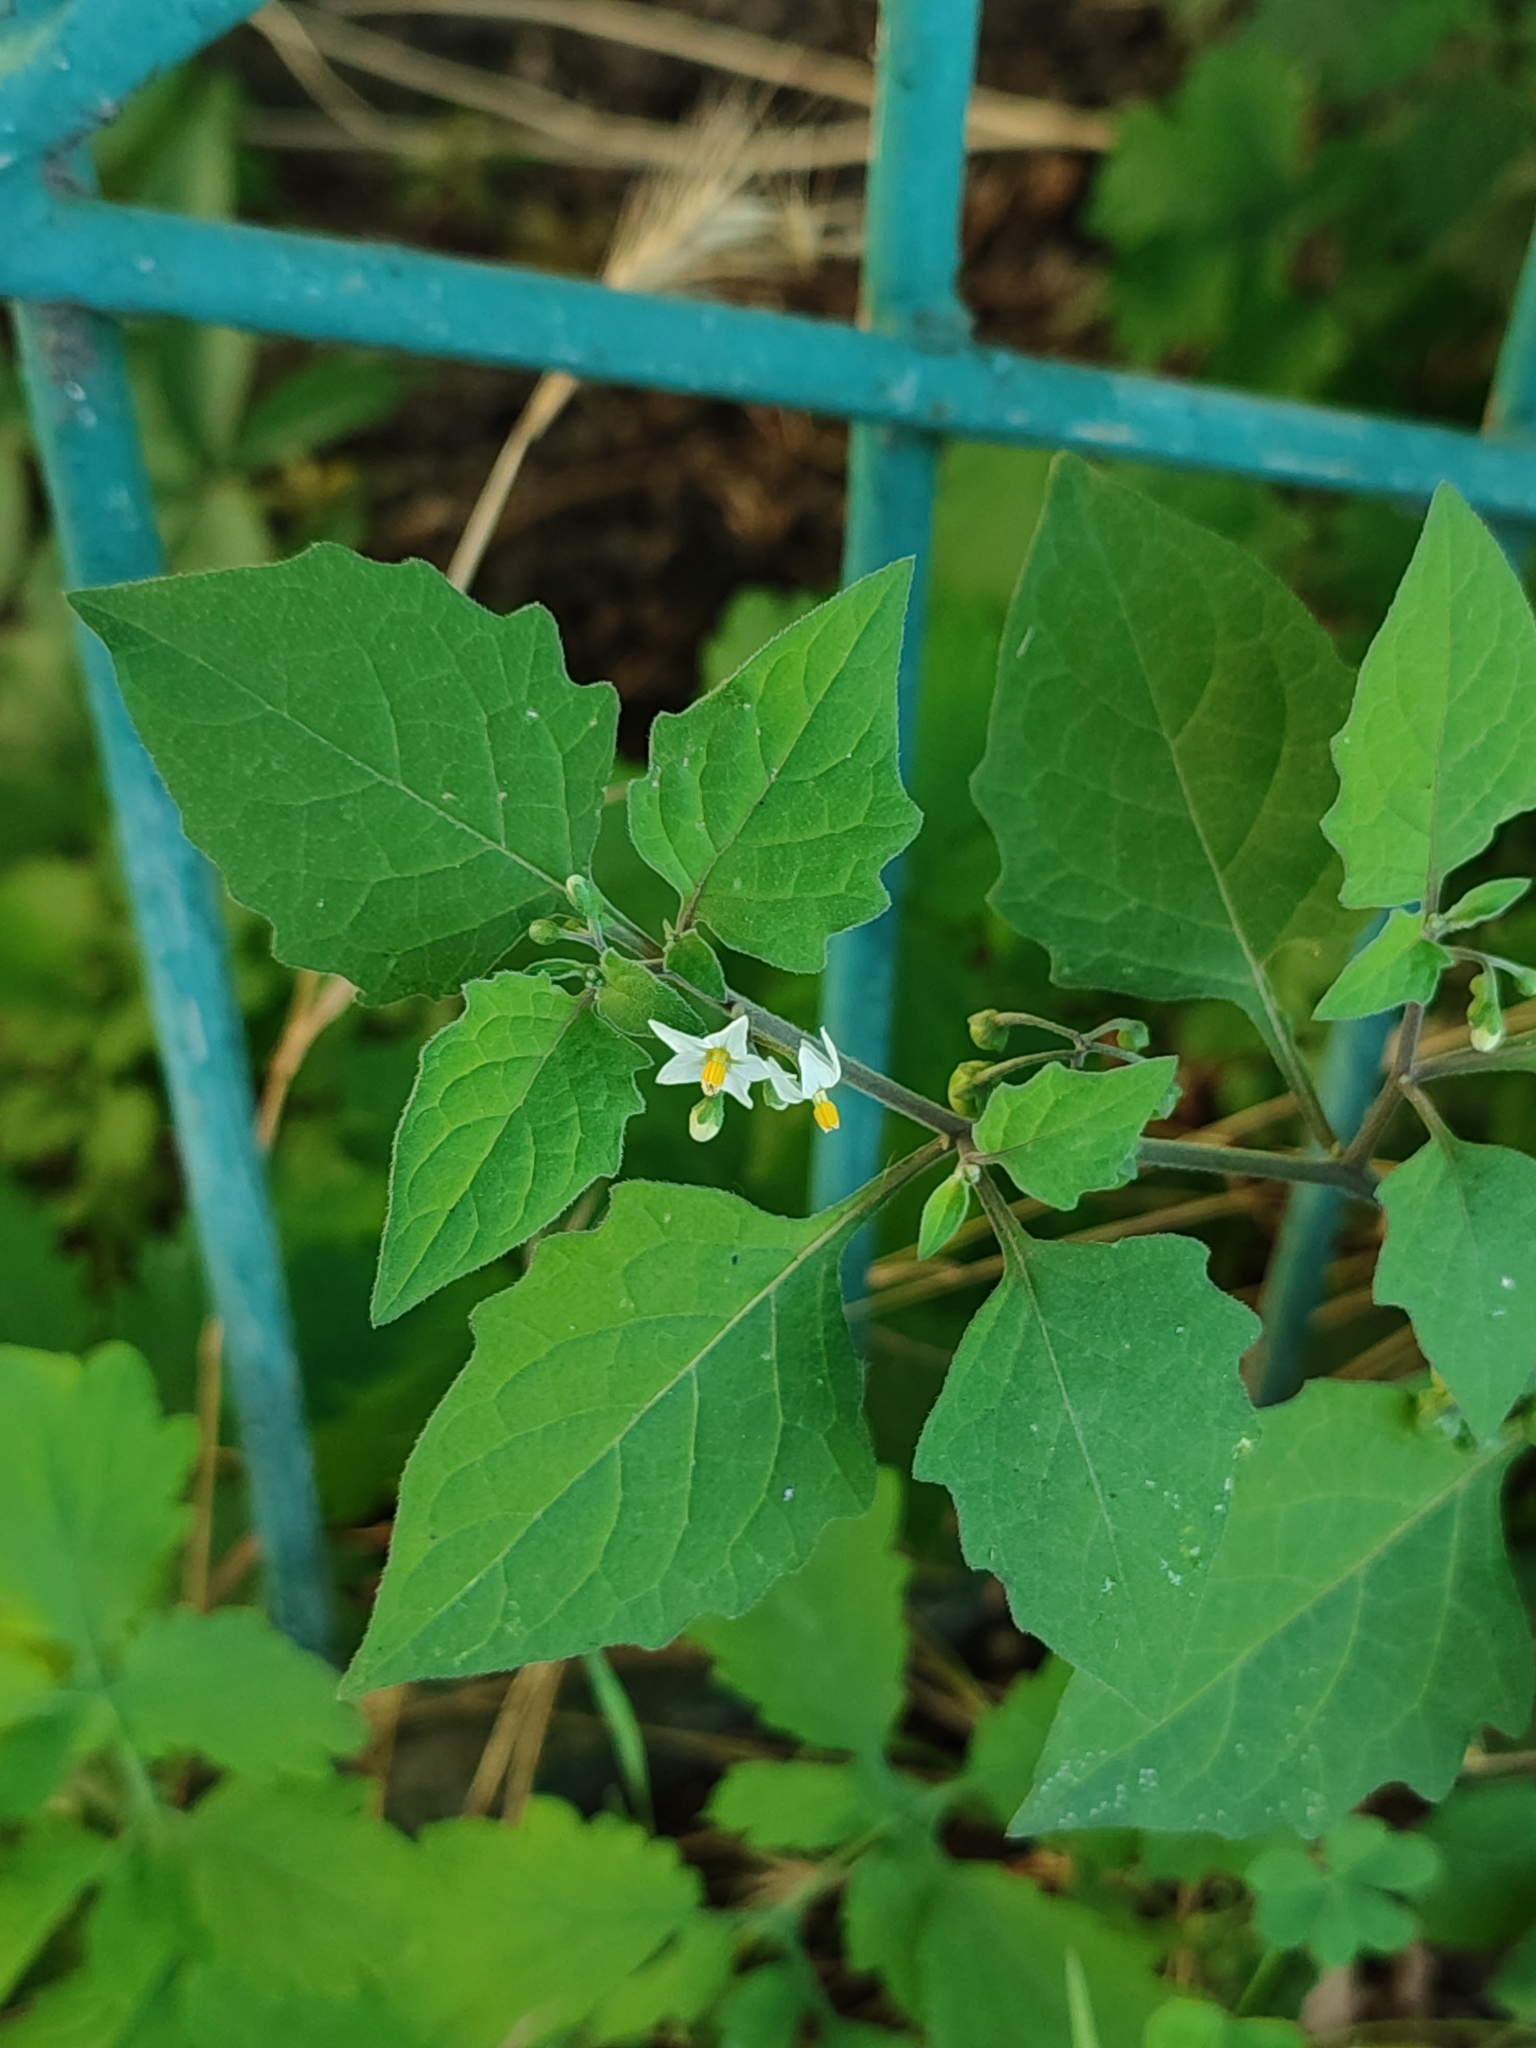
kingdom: Plantae
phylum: Tracheophyta
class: Magnoliopsida
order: Solanales
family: Solanaceae
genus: Solanum
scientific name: Solanum nigrum
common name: Black nightshade
